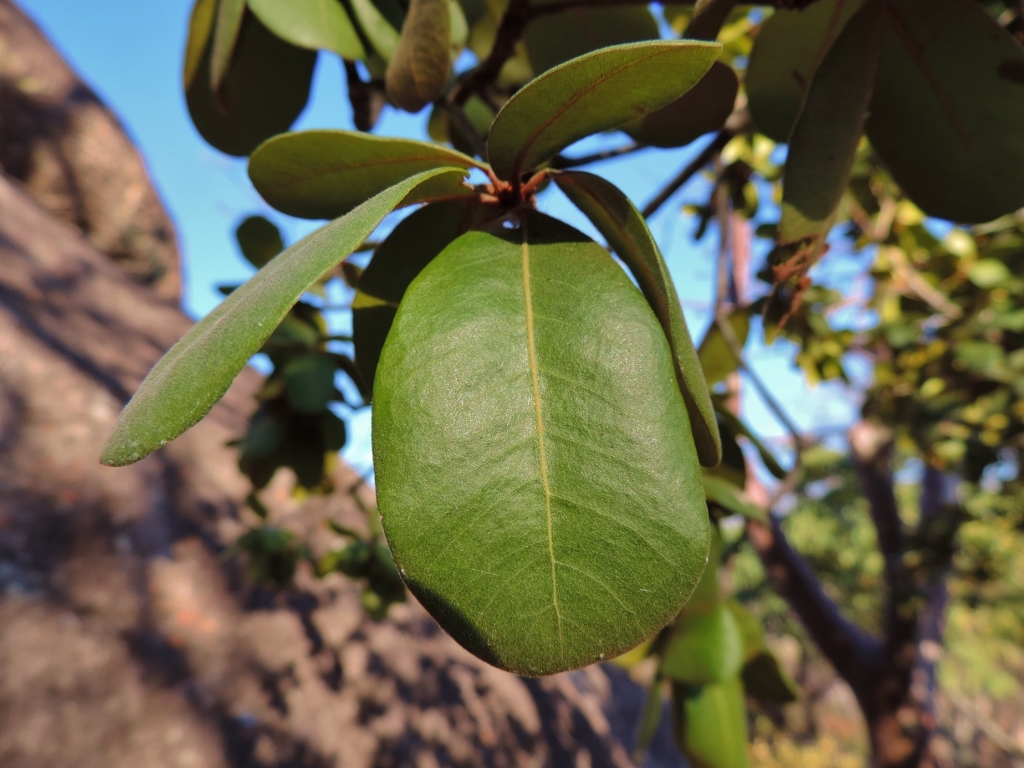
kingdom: Plantae
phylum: Tracheophyta
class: Magnoliopsida
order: Ericales
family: Sapotaceae
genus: Vitellariopsis
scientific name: Vitellariopsis ferruginea
